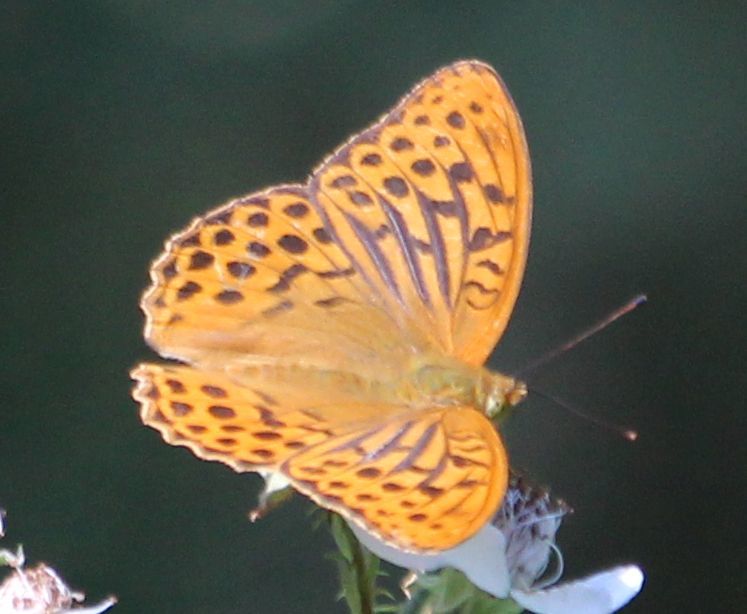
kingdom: Animalia
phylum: Arthropoda
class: Insecta
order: Lepidoptera
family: Nymphalidae
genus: Argynnis
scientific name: Argynnis paphia
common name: Silver-washed fritillary
